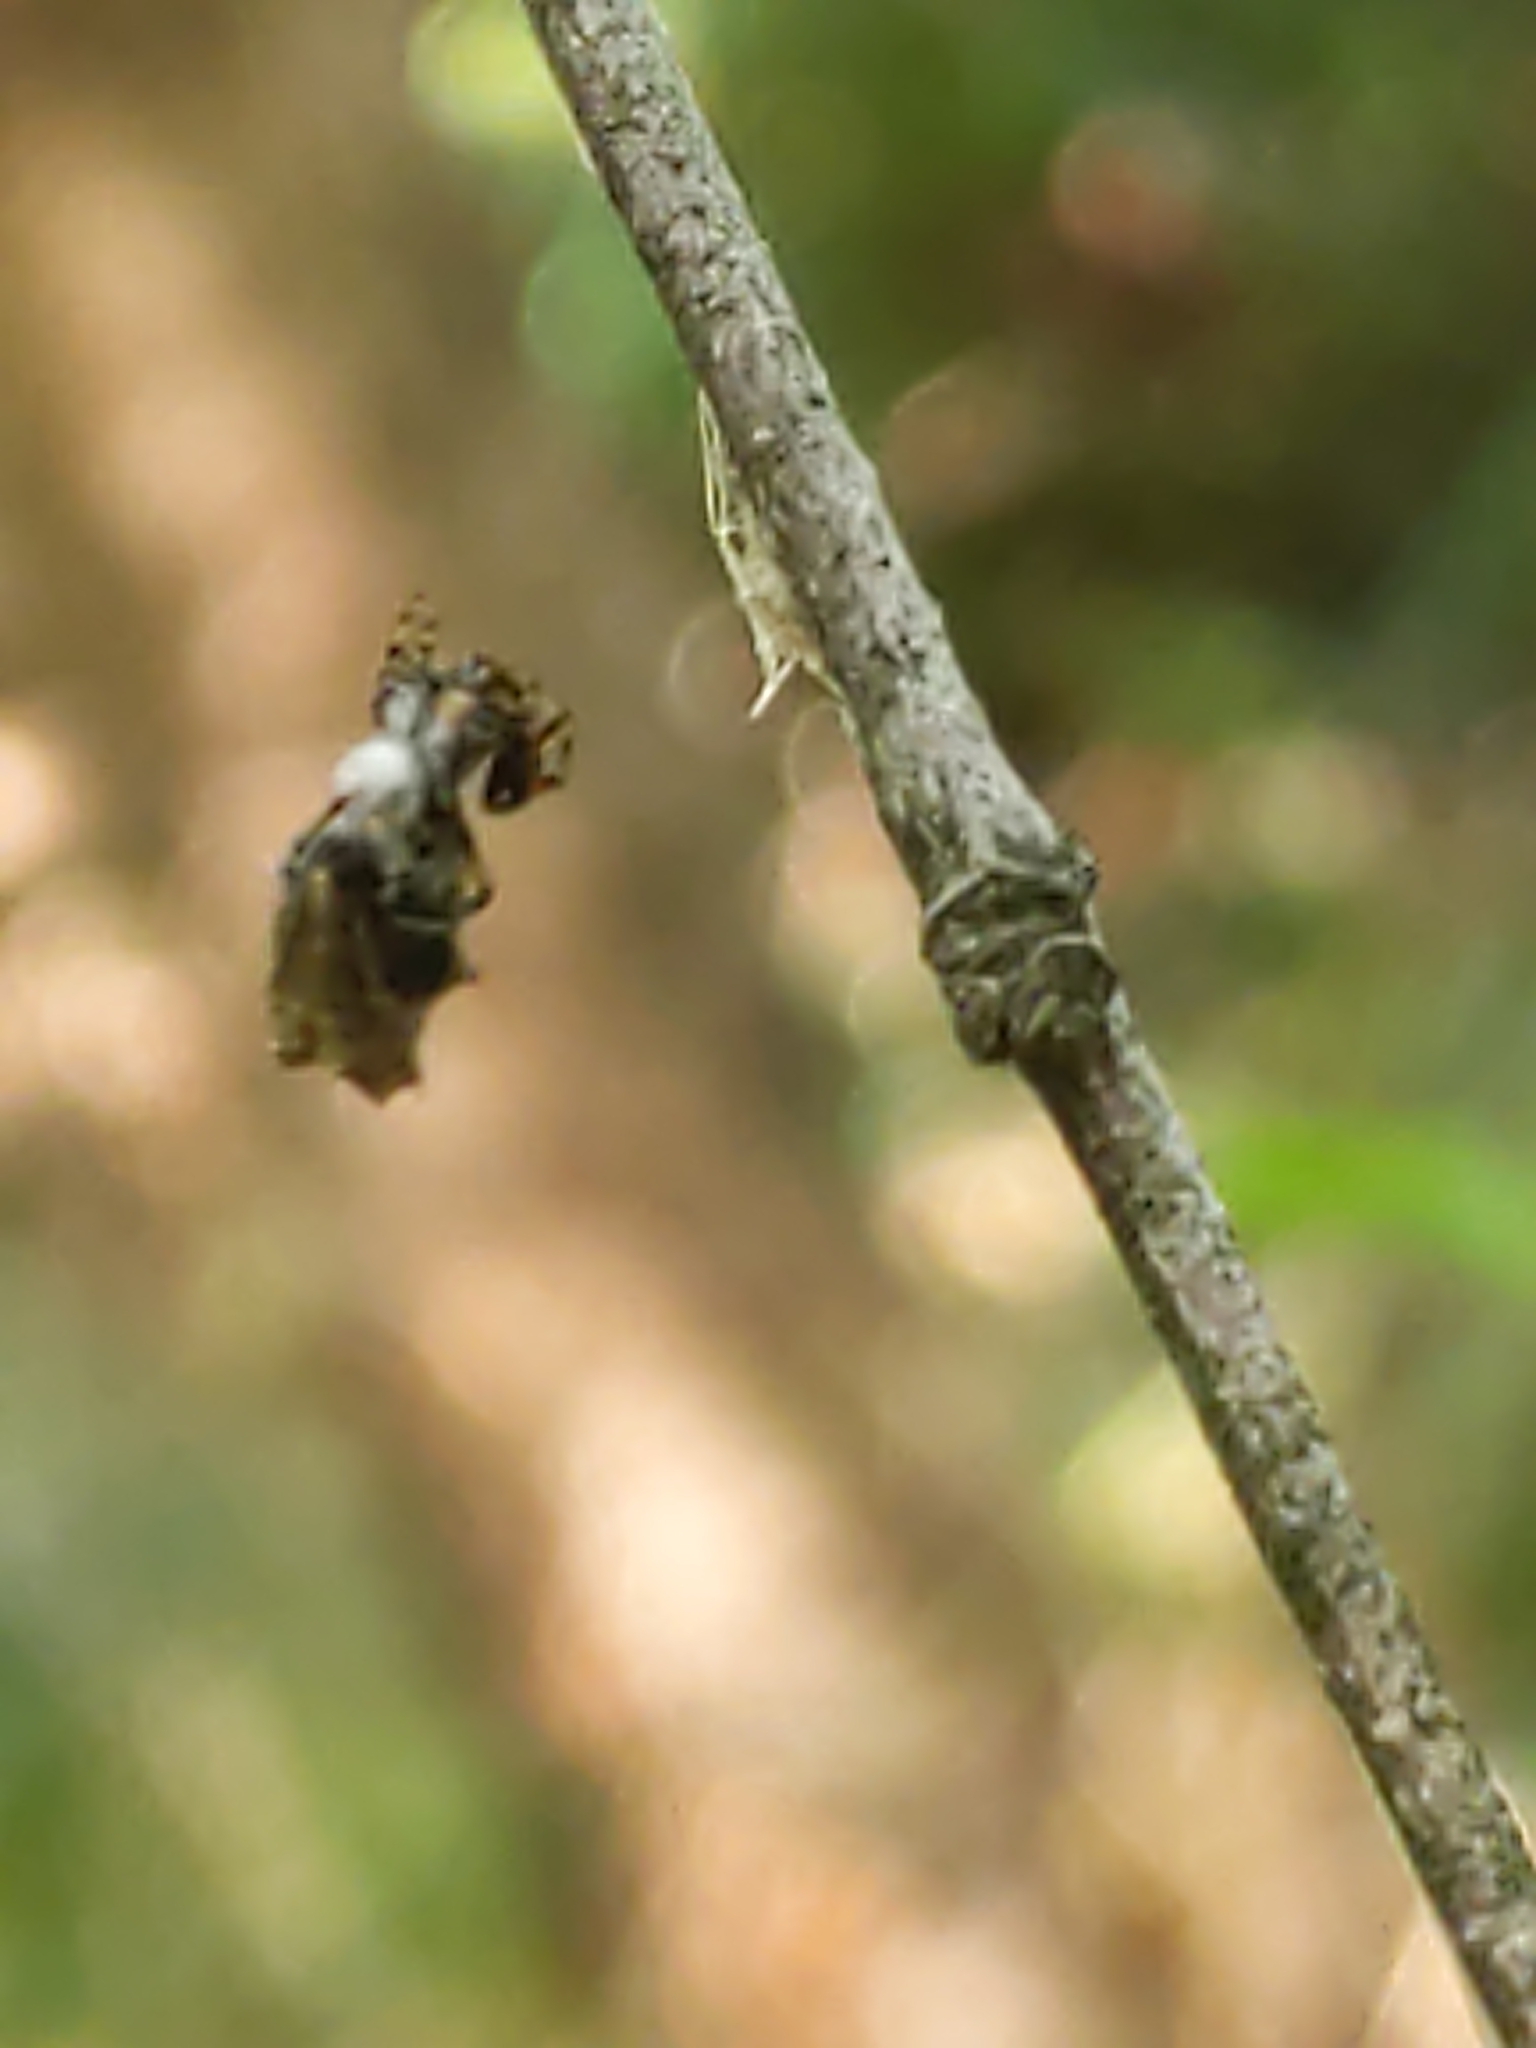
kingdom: Animalia
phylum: Arthropoda
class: Arachnida
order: Araneae
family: Araneidae
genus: Micrathena
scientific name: Micrathena gracilis
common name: Orb weavers
